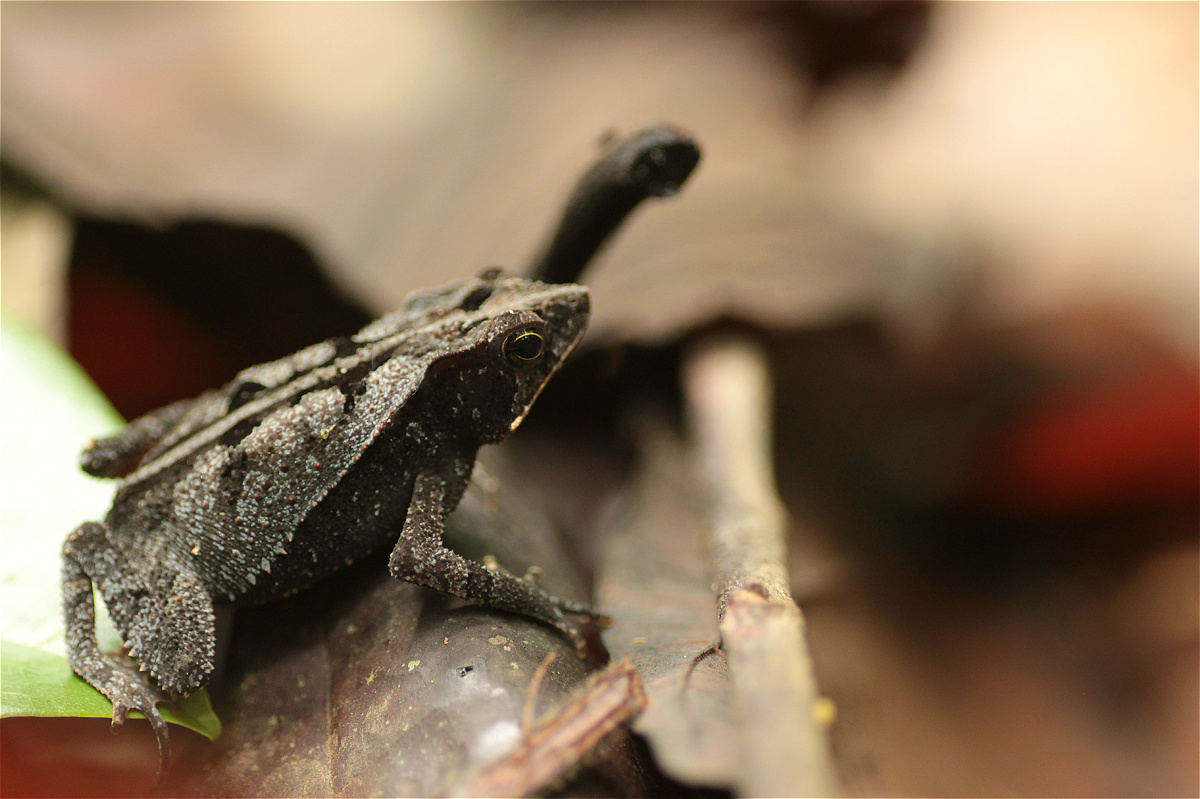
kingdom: Animalia
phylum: Chordata
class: Amphibia
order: Anura
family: Bufonidae
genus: Rhinella
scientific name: Rhinella margaritifera
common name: Mitred toad
